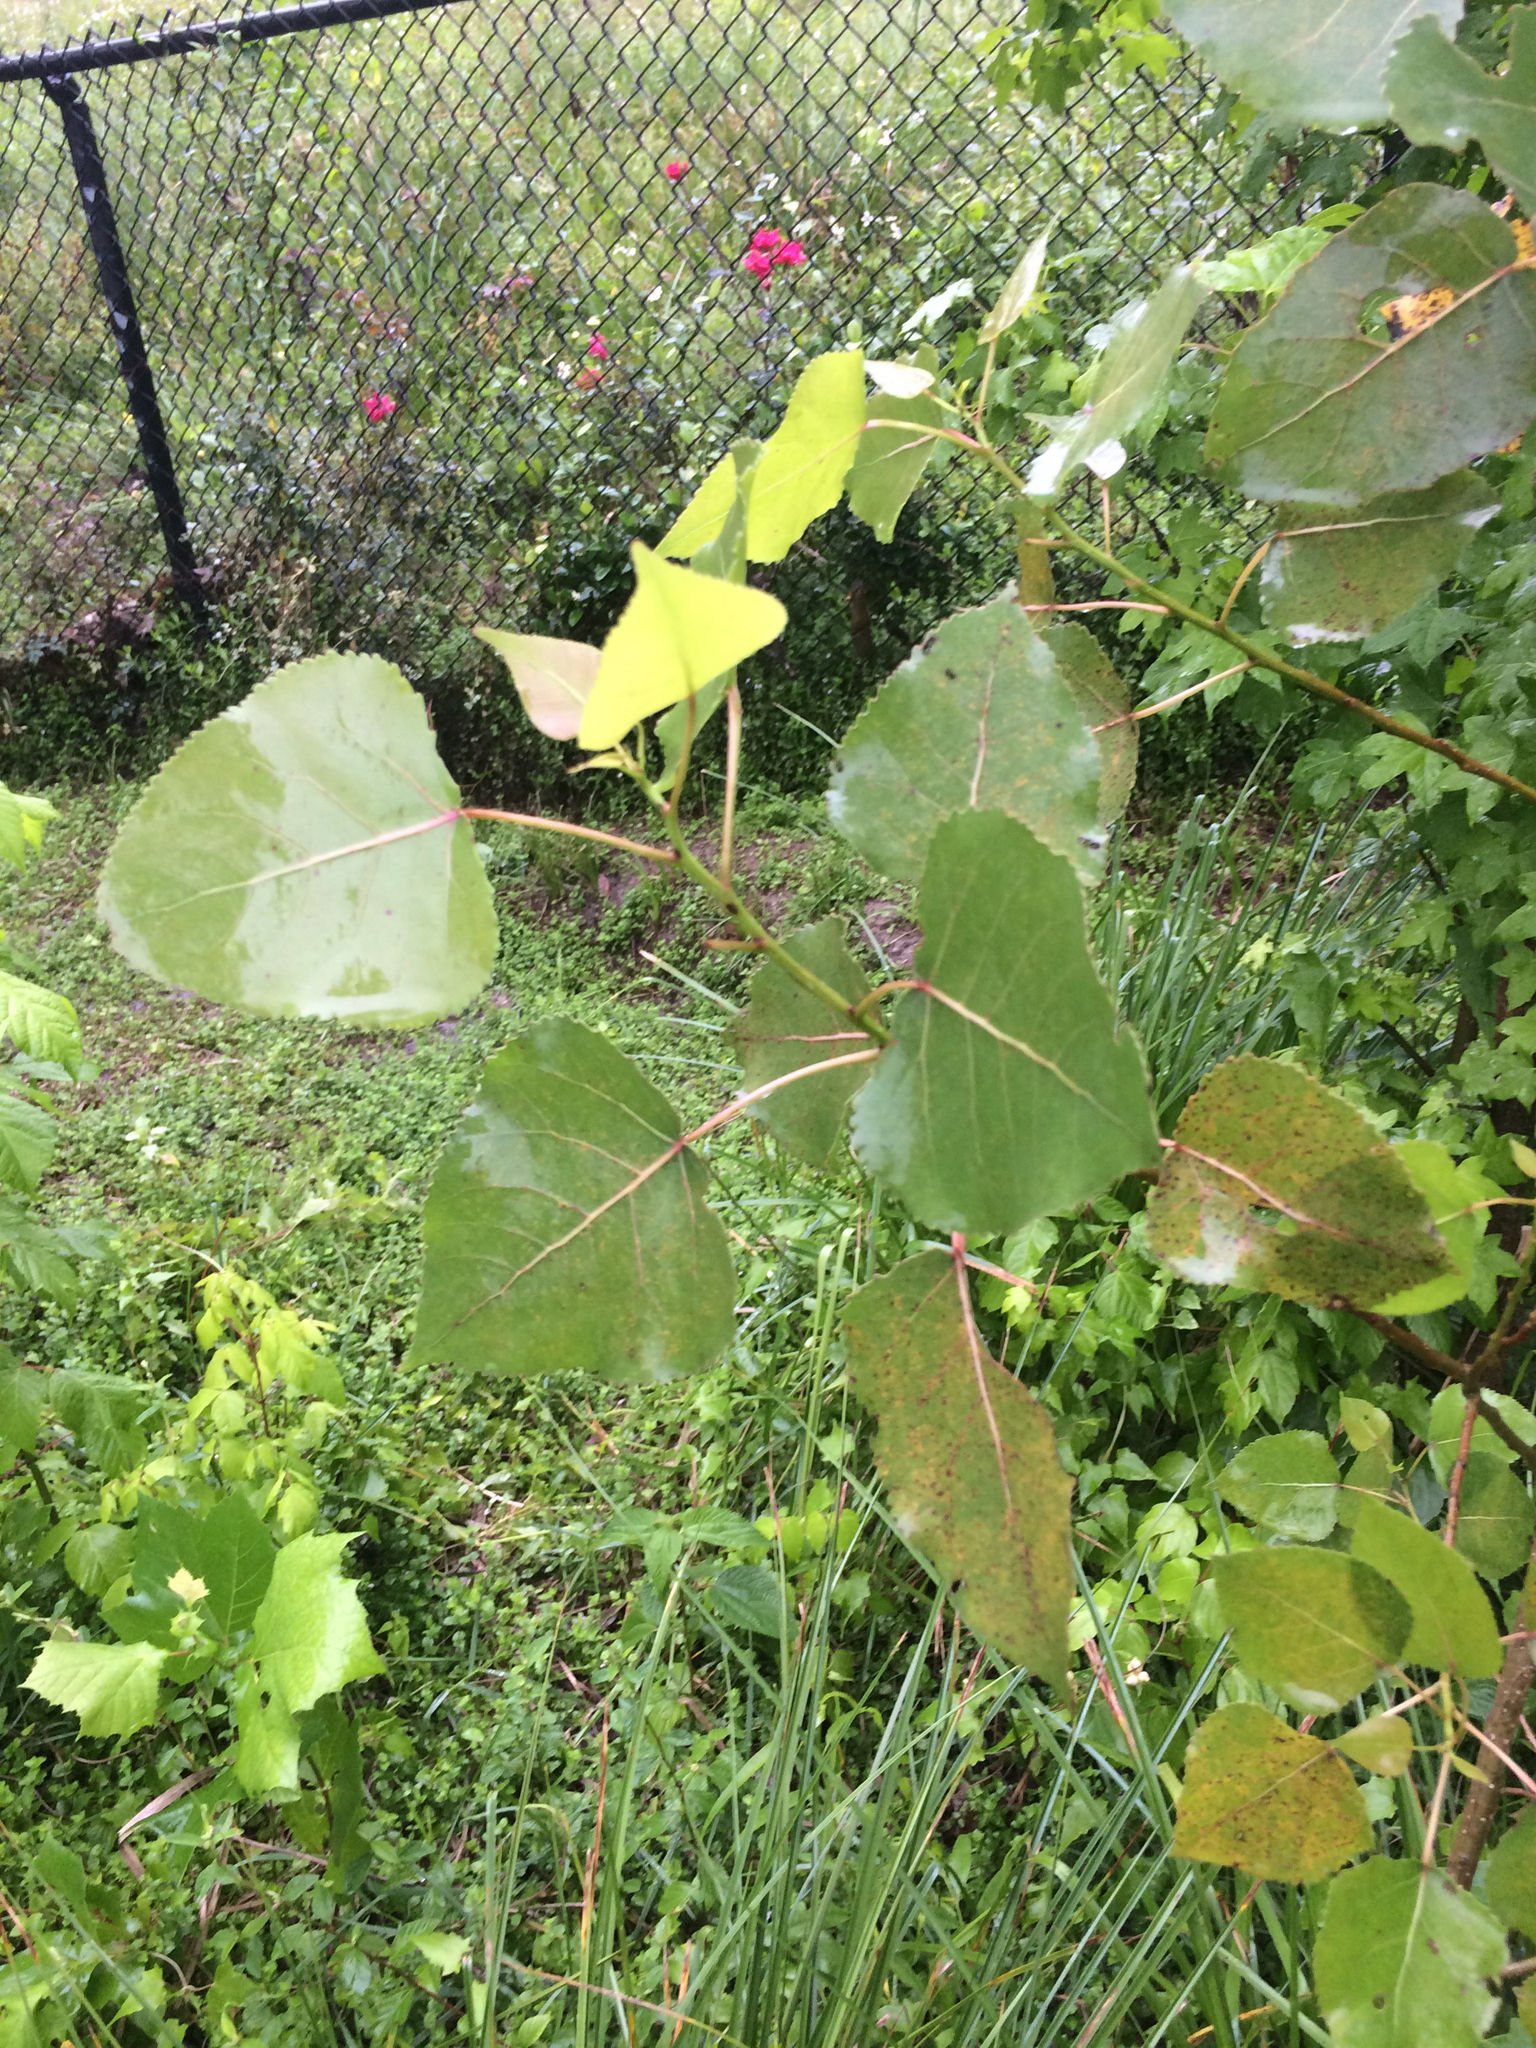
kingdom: Plantae
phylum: Tracheophyta
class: Magnoliopsida
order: Malpighiales
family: Salicaceae
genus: Populus
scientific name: Populus deltoides
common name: Eastern cottonwood
